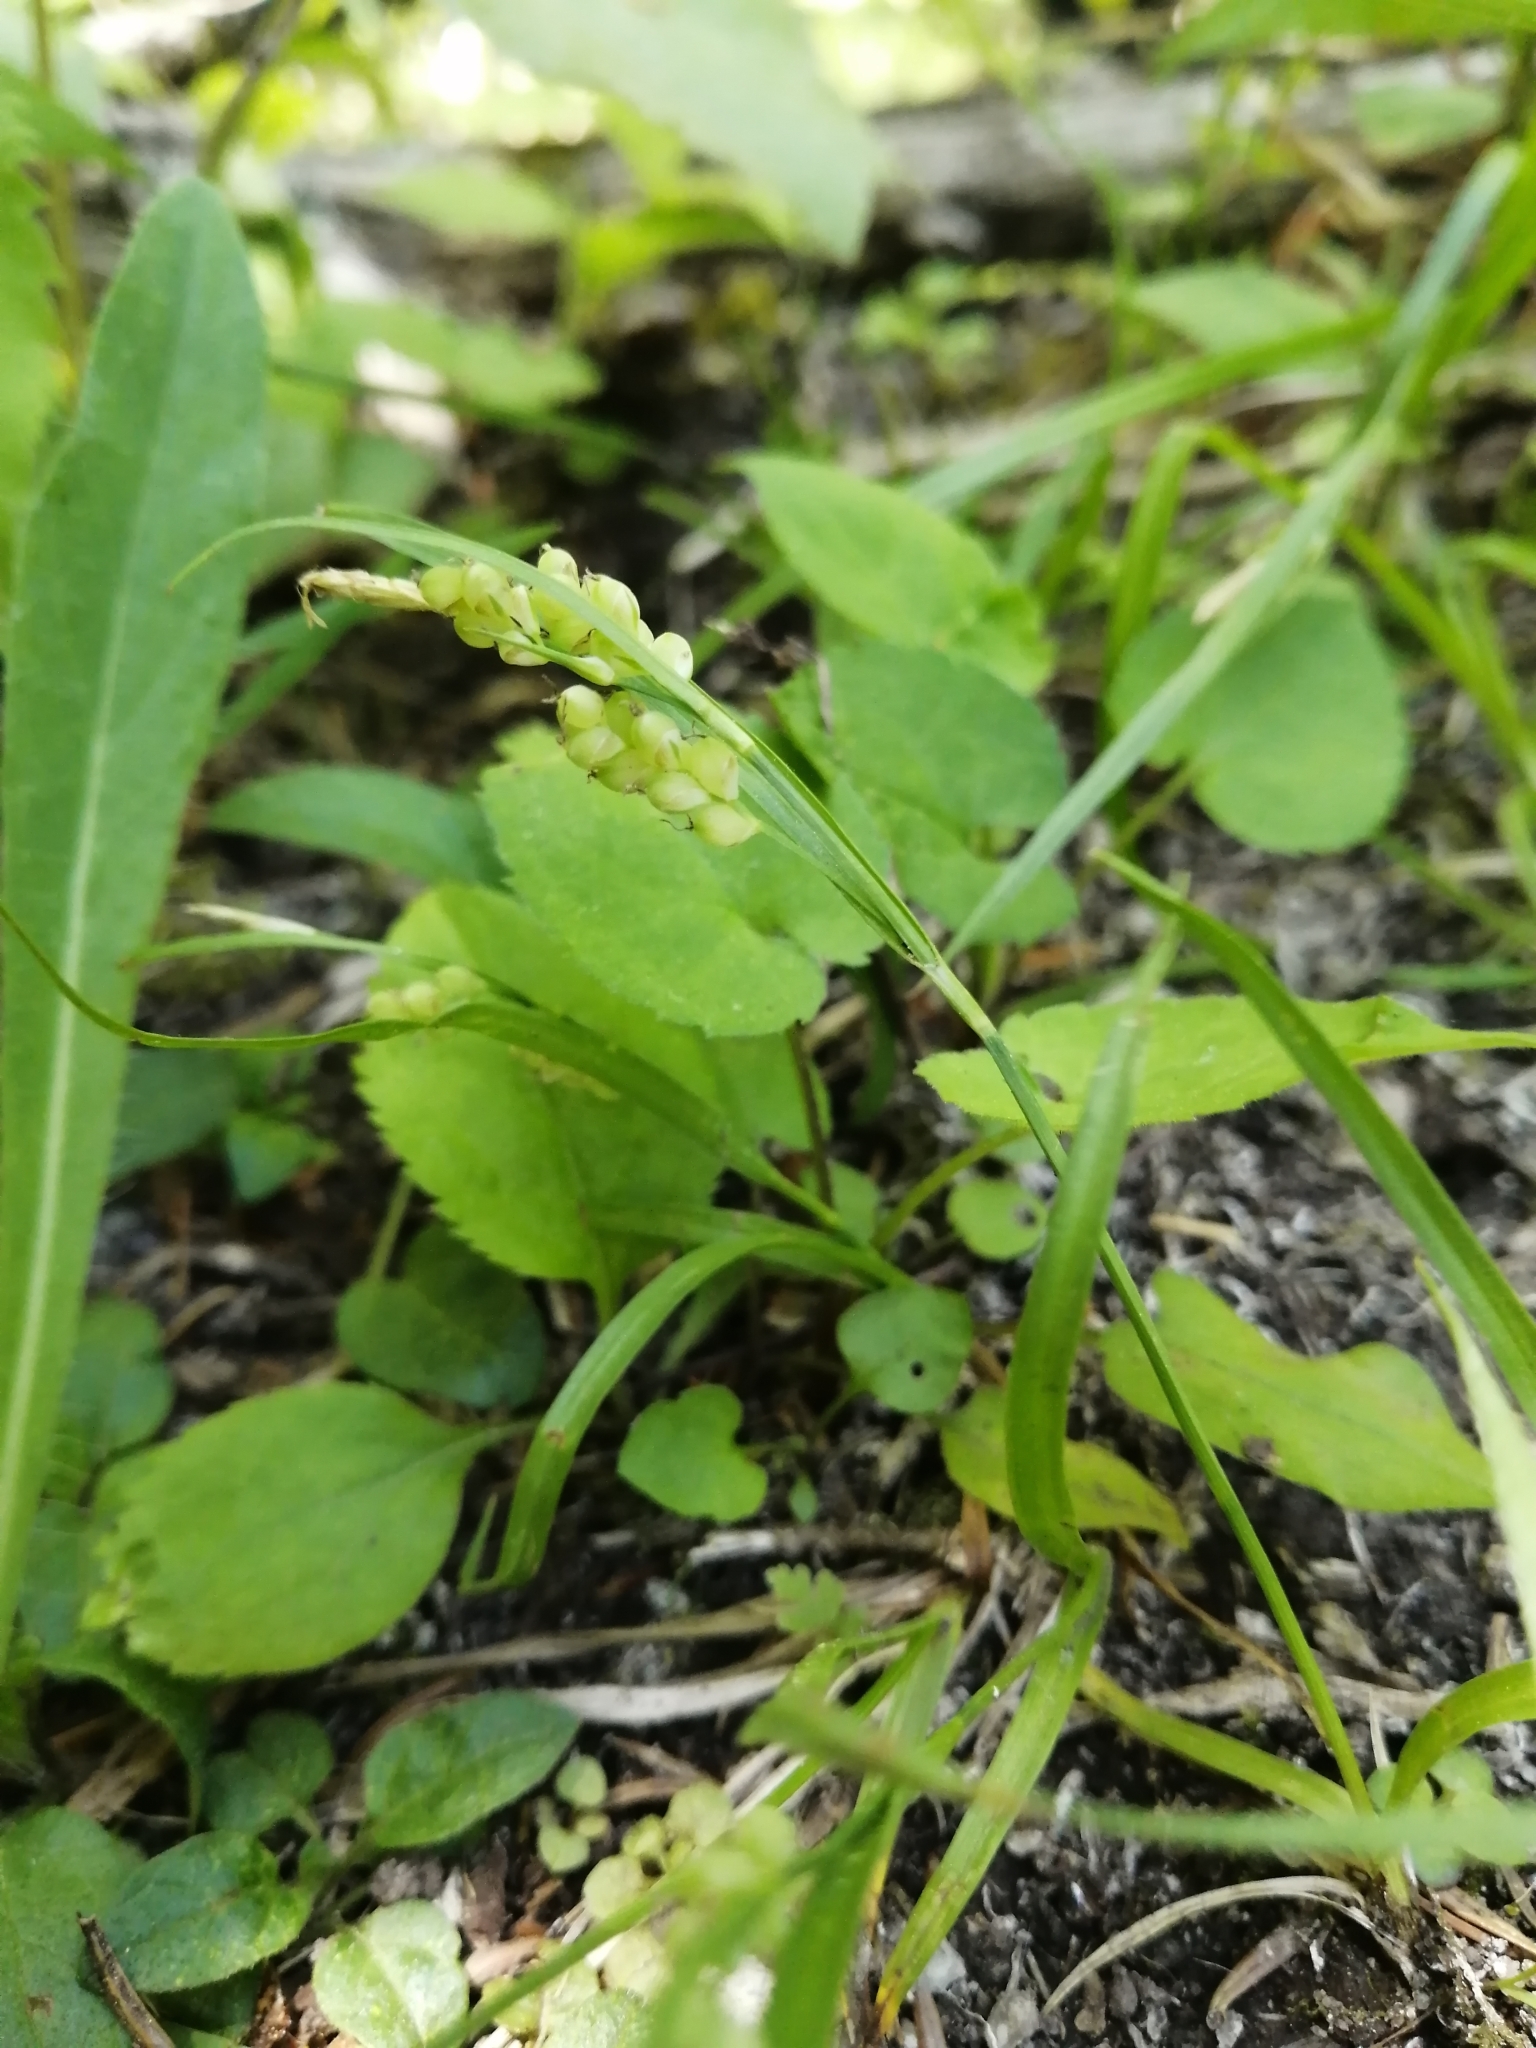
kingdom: Plantae
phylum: Tracheophyta
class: Liliopsida
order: Poales
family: Cyperaceae
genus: Carex
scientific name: Carex aurea
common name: Golden sedge
